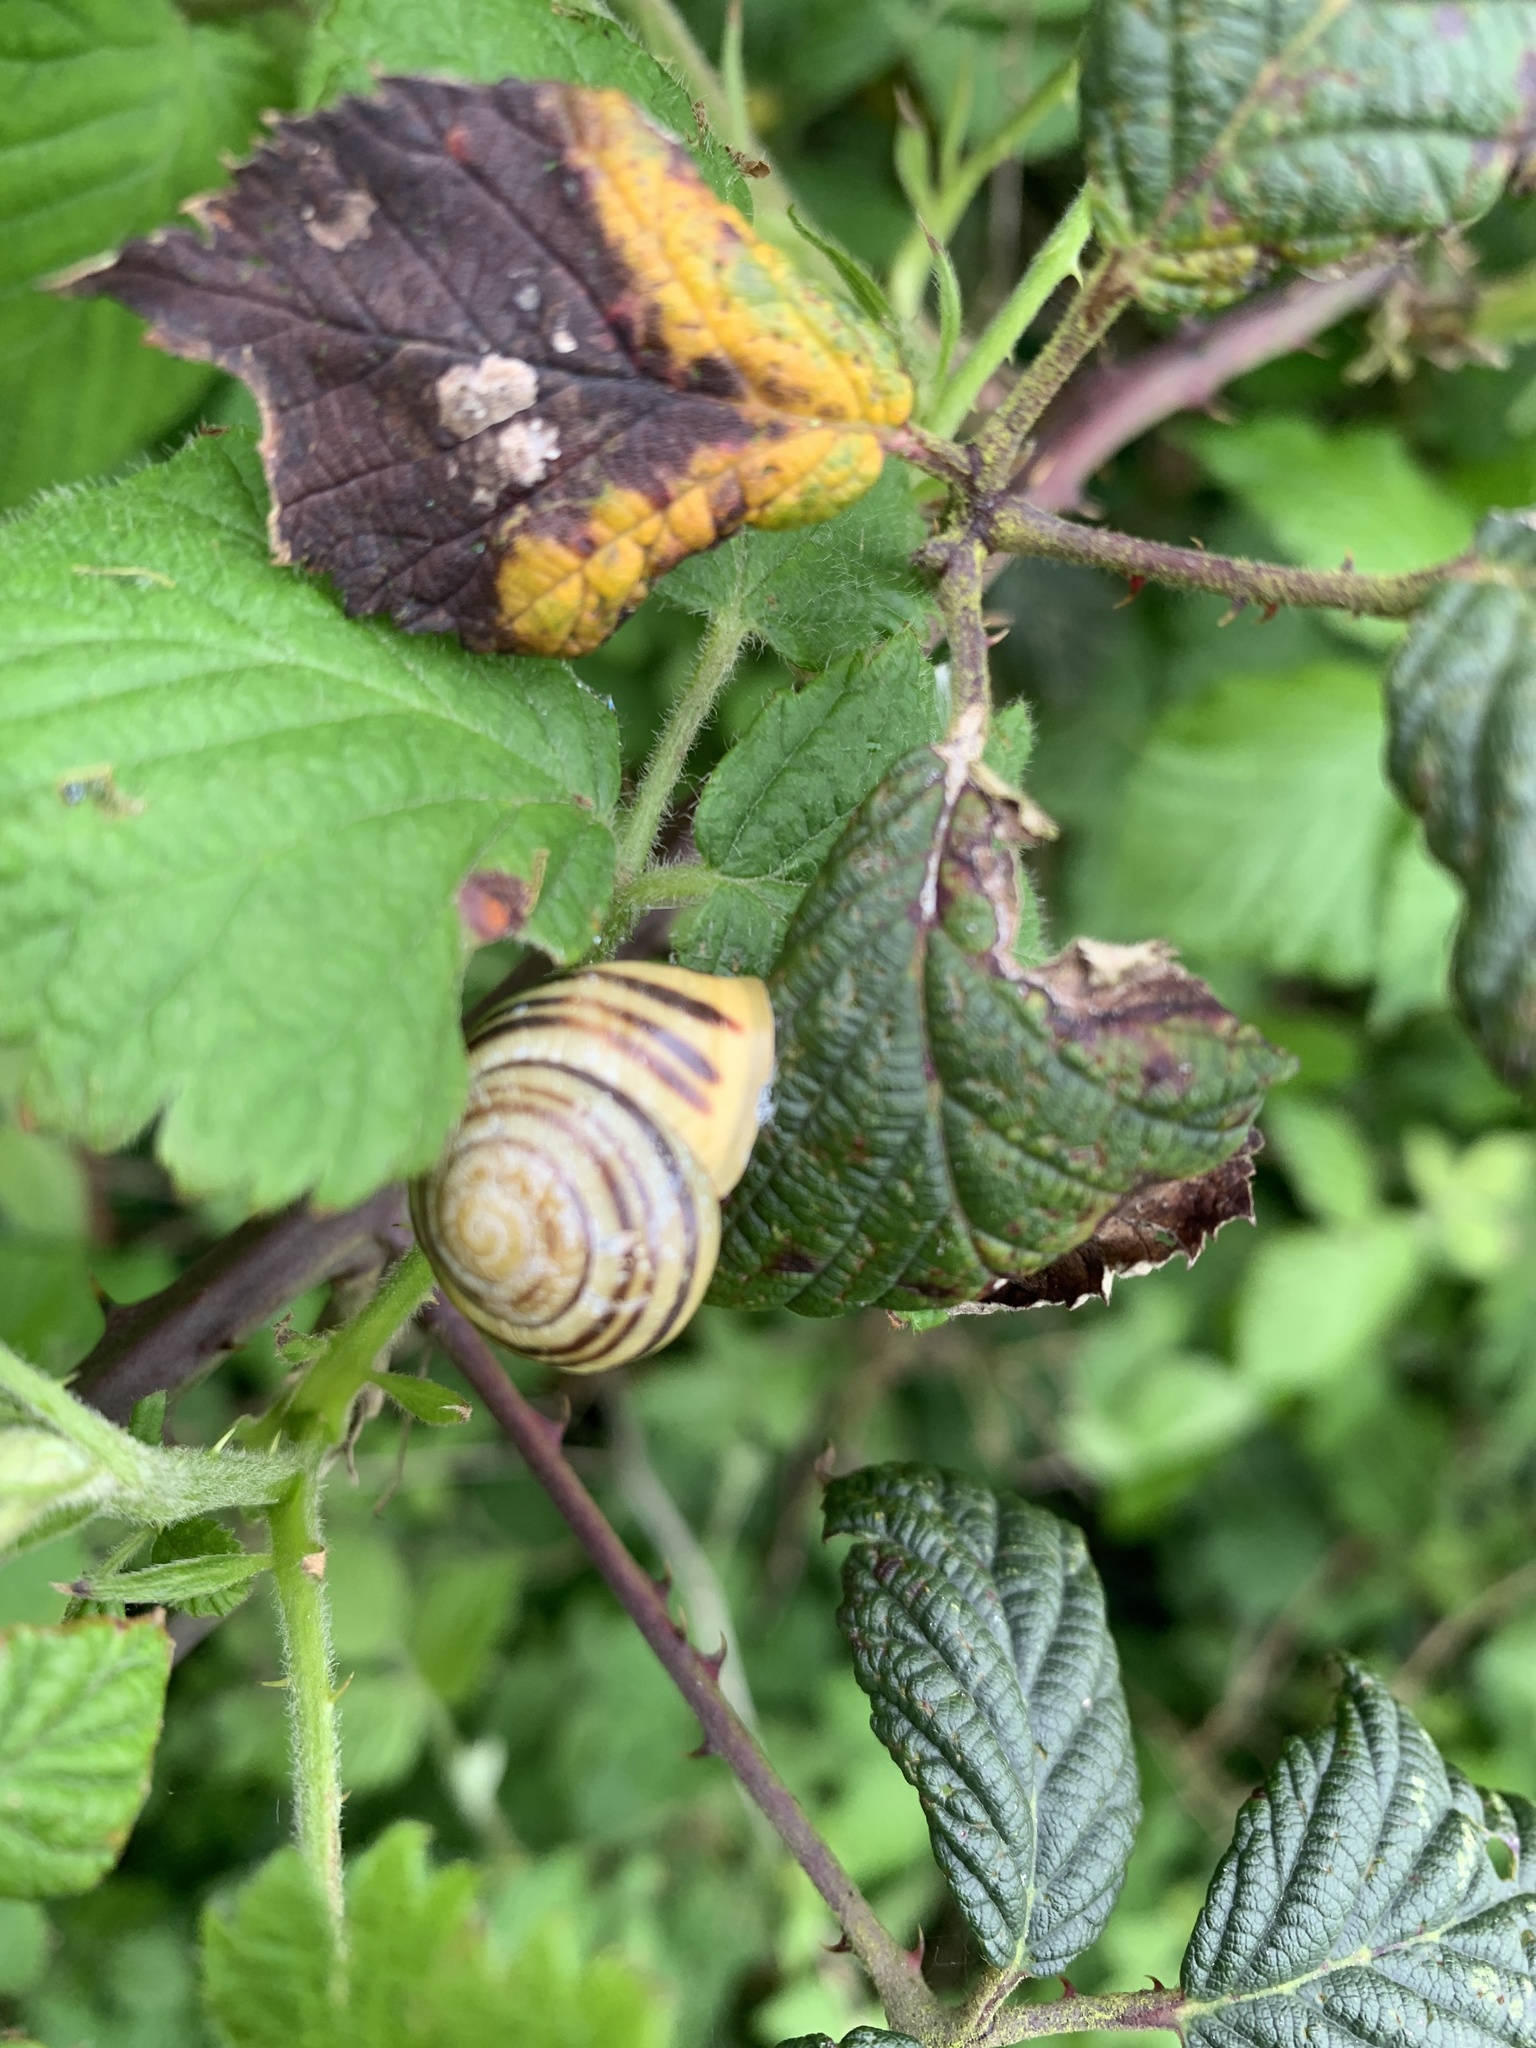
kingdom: Animalia
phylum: Mollusca
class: Gastropoda
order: Stylommatophora
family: Helicidae
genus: Cepaea
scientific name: Cepaea hortensis
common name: White-lip gardensnail
